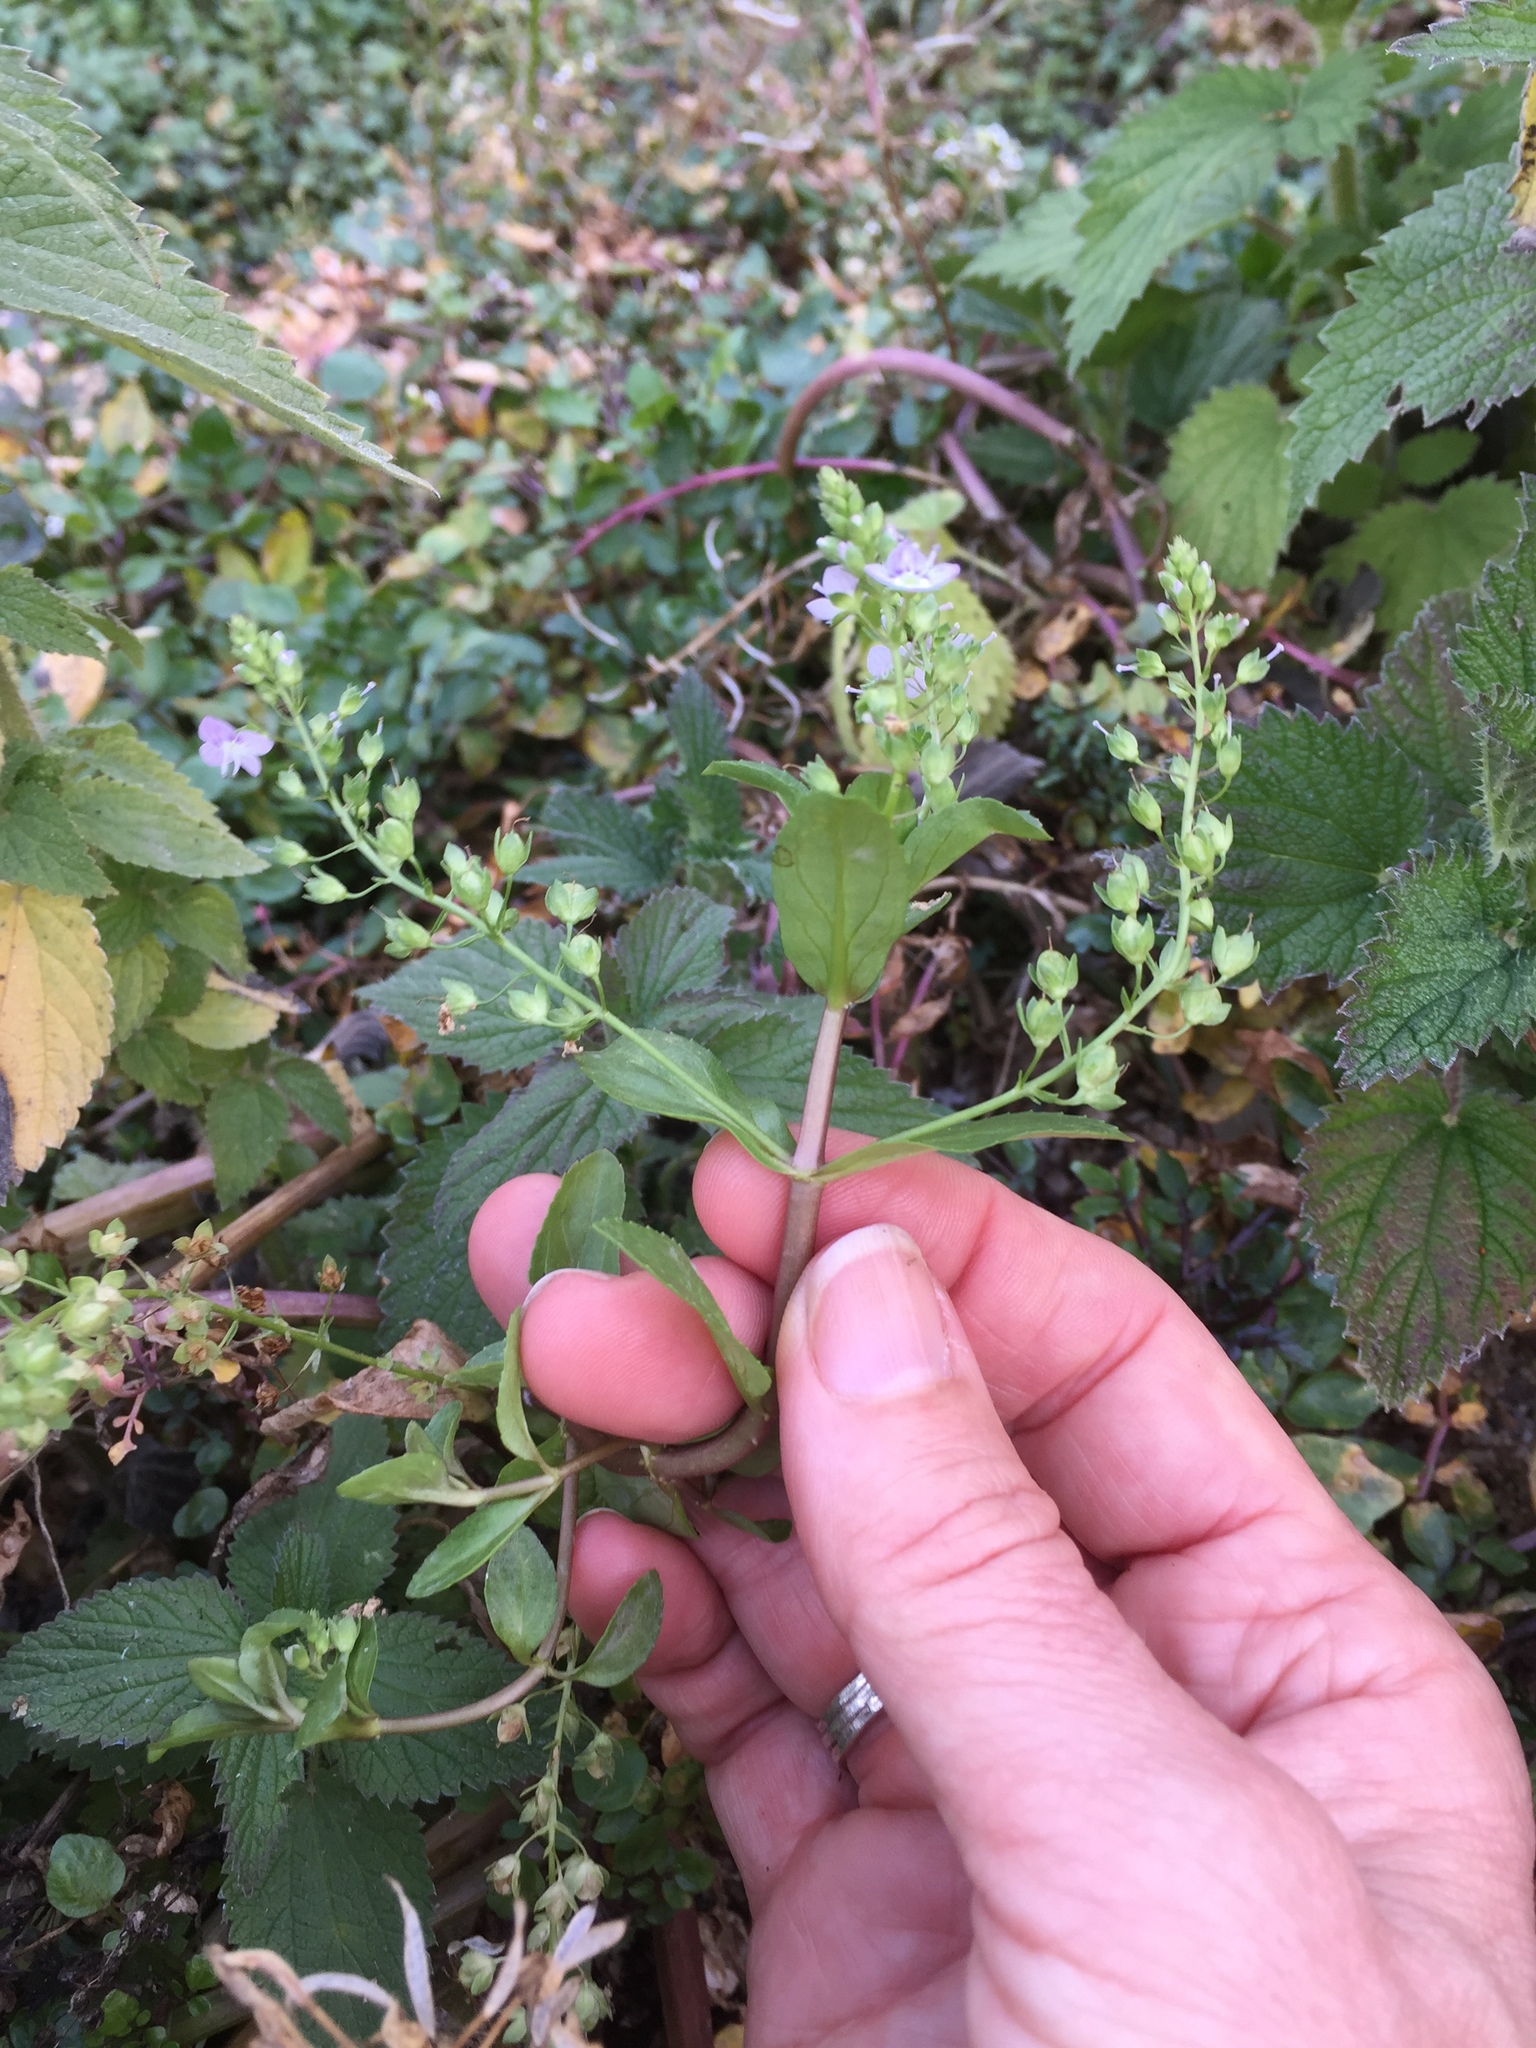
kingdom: Plantae
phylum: Tracheophyta
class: Magnoliopsida
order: Lamiales
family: Plantaginaceae
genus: Veronica
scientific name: Veronica anagallis-aquatica
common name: Water speedwell
